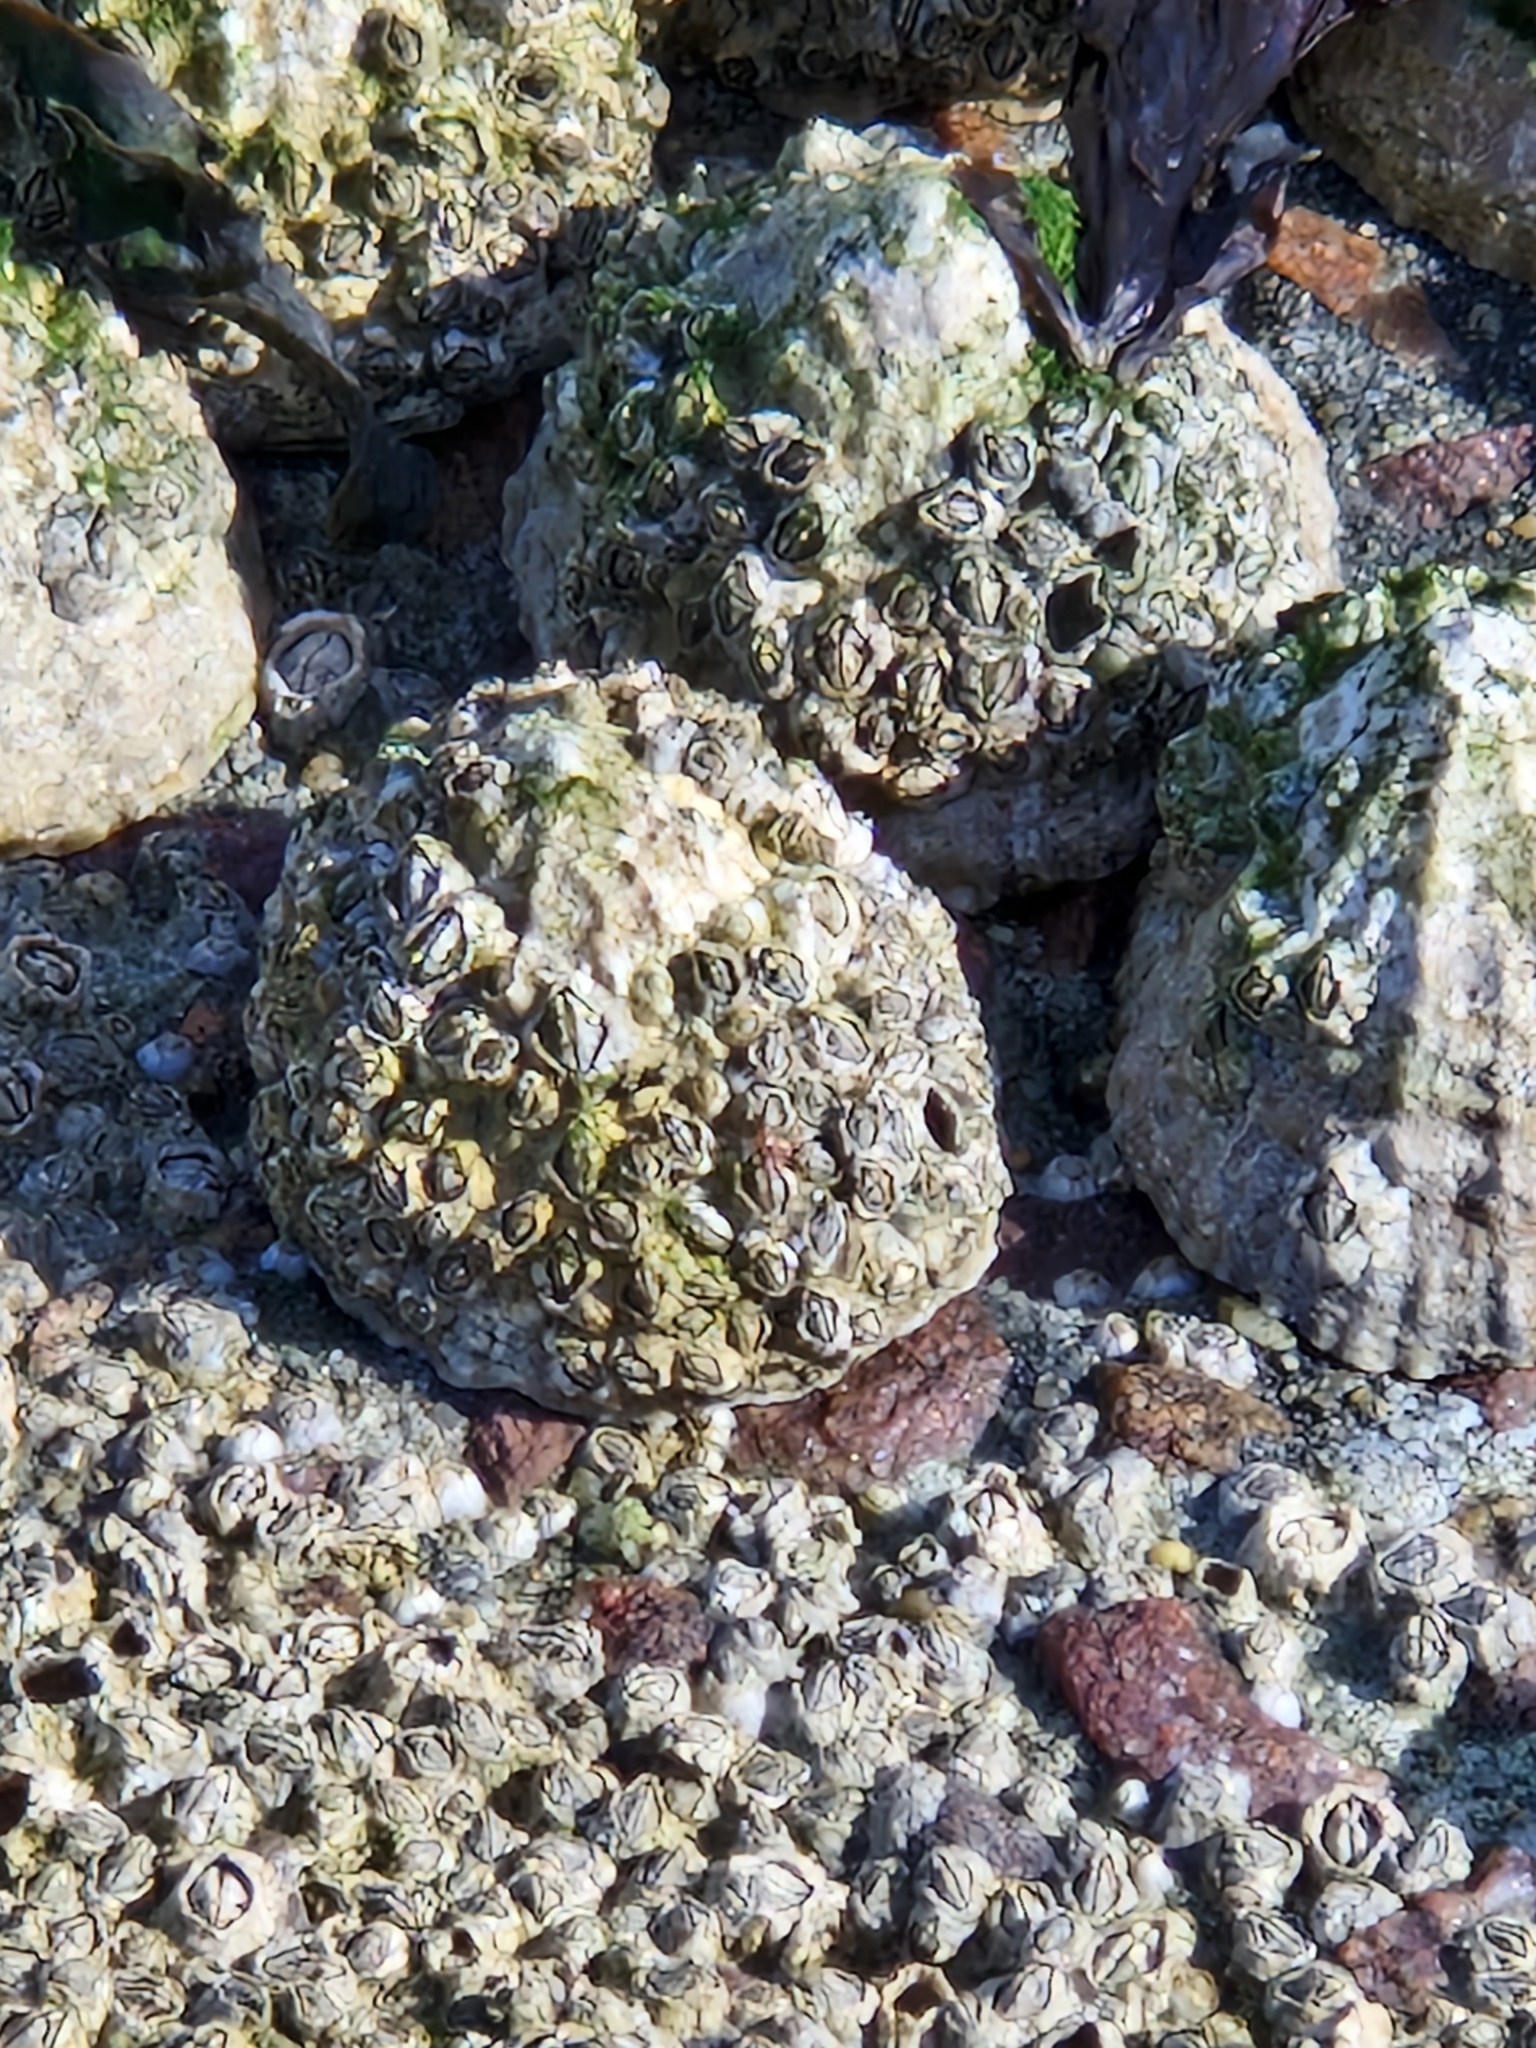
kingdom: Animalia
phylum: Arthropoda
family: Elminiidae
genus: Austrominius
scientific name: Austrominius modestus
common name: Australasian barnacle
